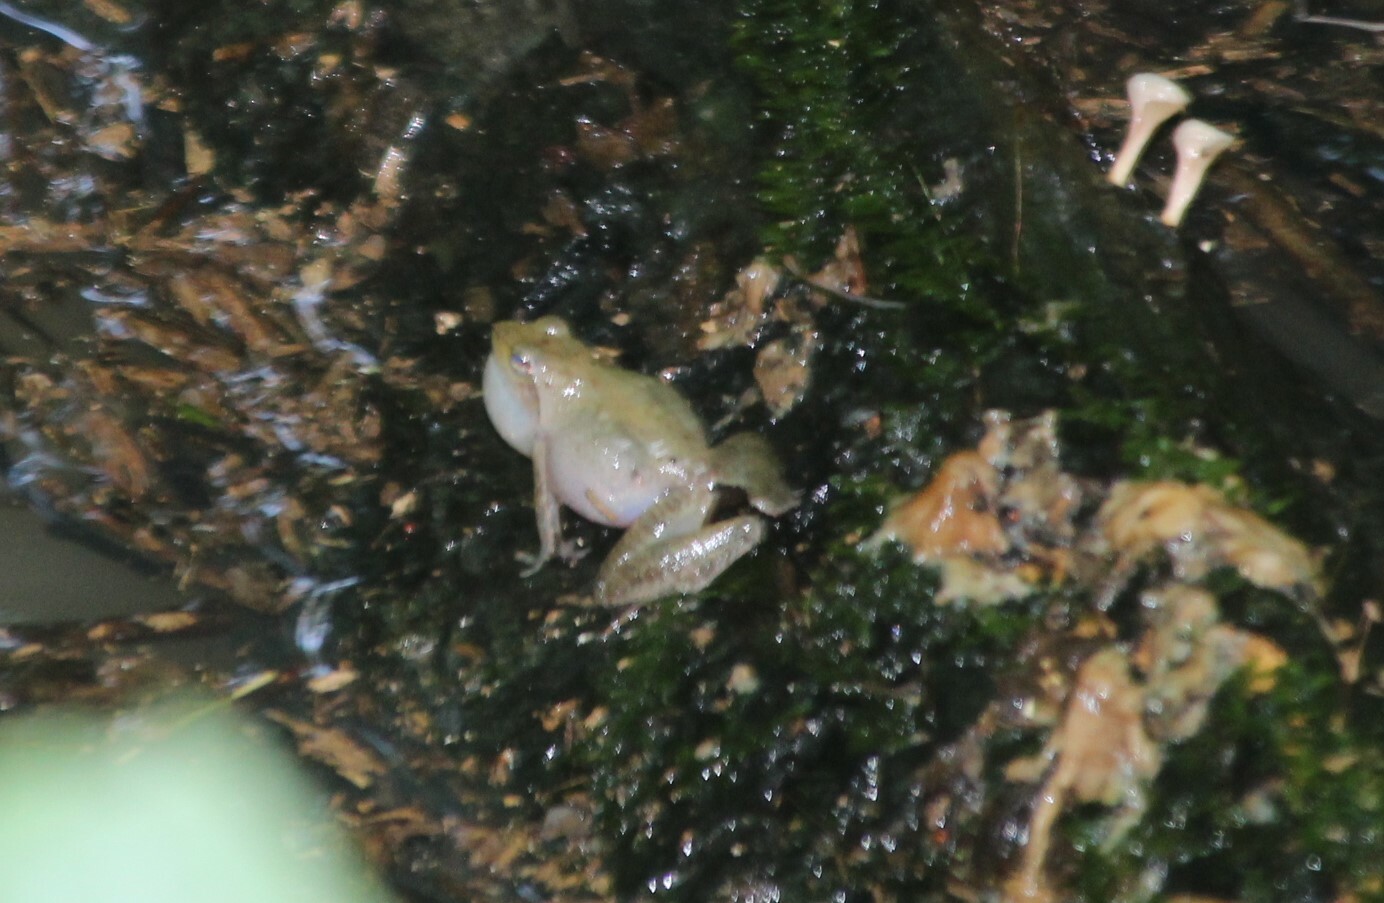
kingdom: Animalia
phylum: Chordata
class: Amphibia
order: Anura
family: Phrynobatrachidae
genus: Phrynobatrachus
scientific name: Phrynobatrachus auritus
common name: Eared river frog
